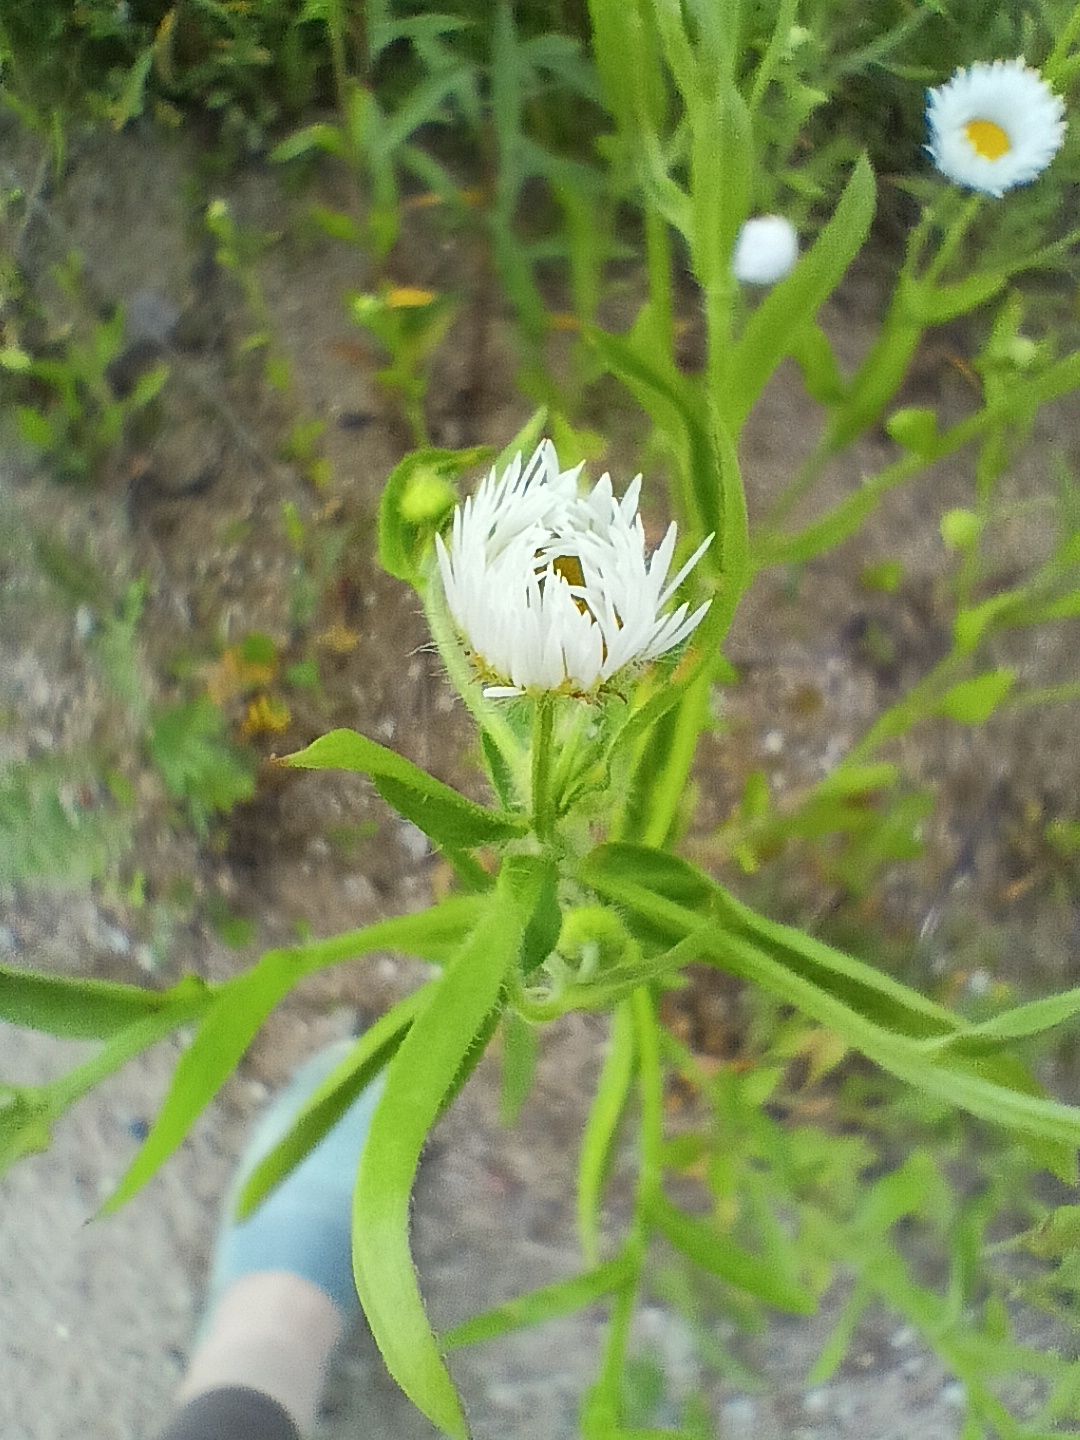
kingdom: Plantae
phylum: Tracheophyta
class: Magnoliopsida
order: Asterales
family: Asteraceae
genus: Erigeron
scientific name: Erigeron annuus
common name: Tall fleabane
